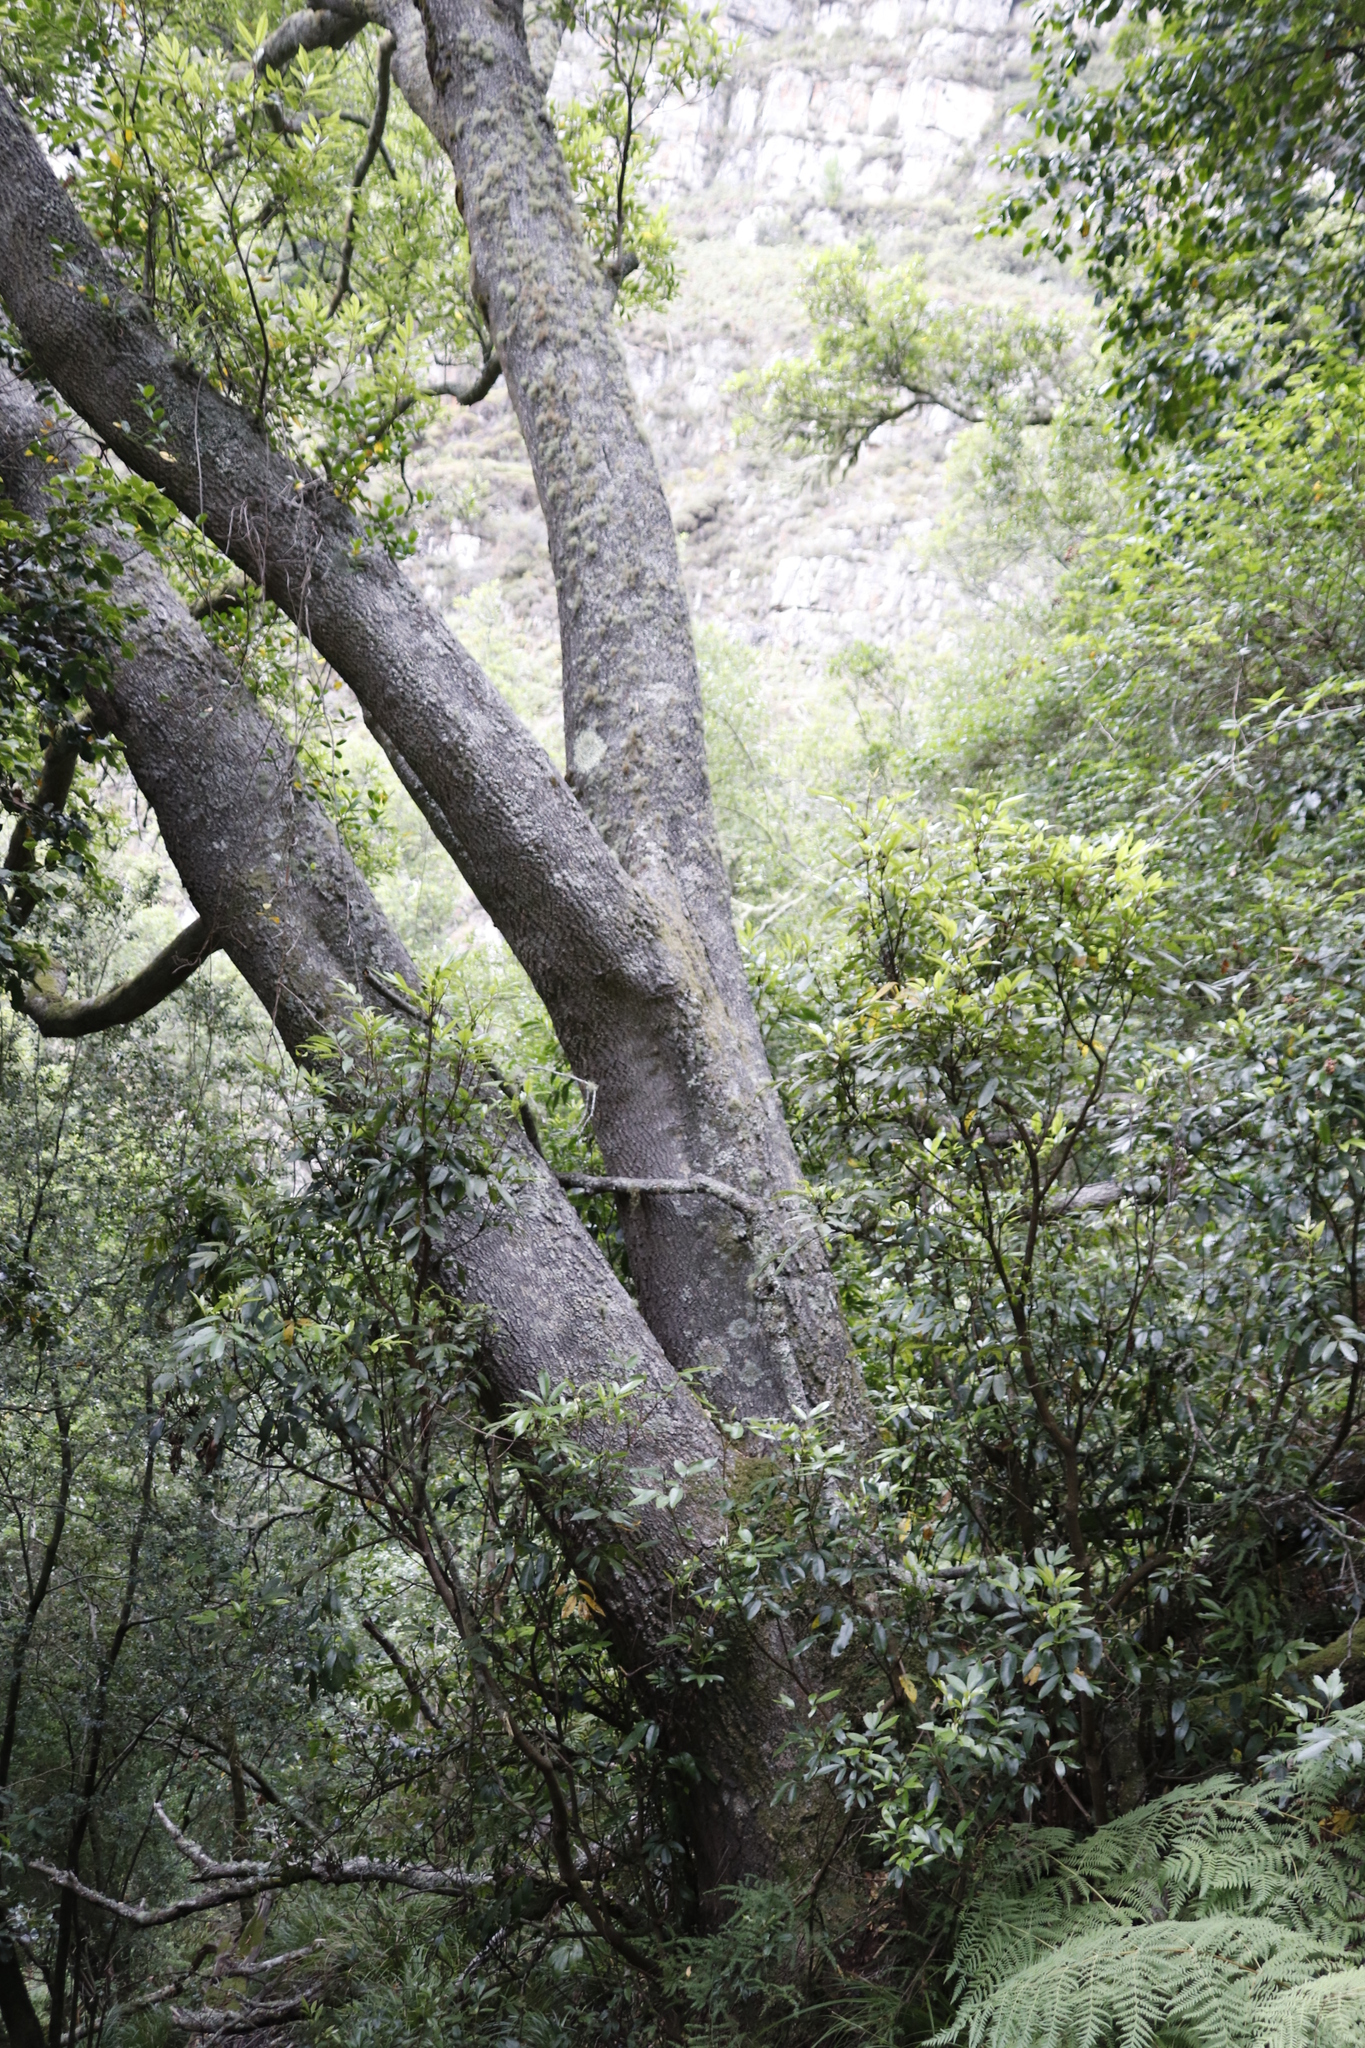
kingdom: Plantae
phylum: Tracheophyta
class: Magnoliopsida
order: Oxalidales
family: Cunoniaceae
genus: Cunonia
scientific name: Cunonia capensis
